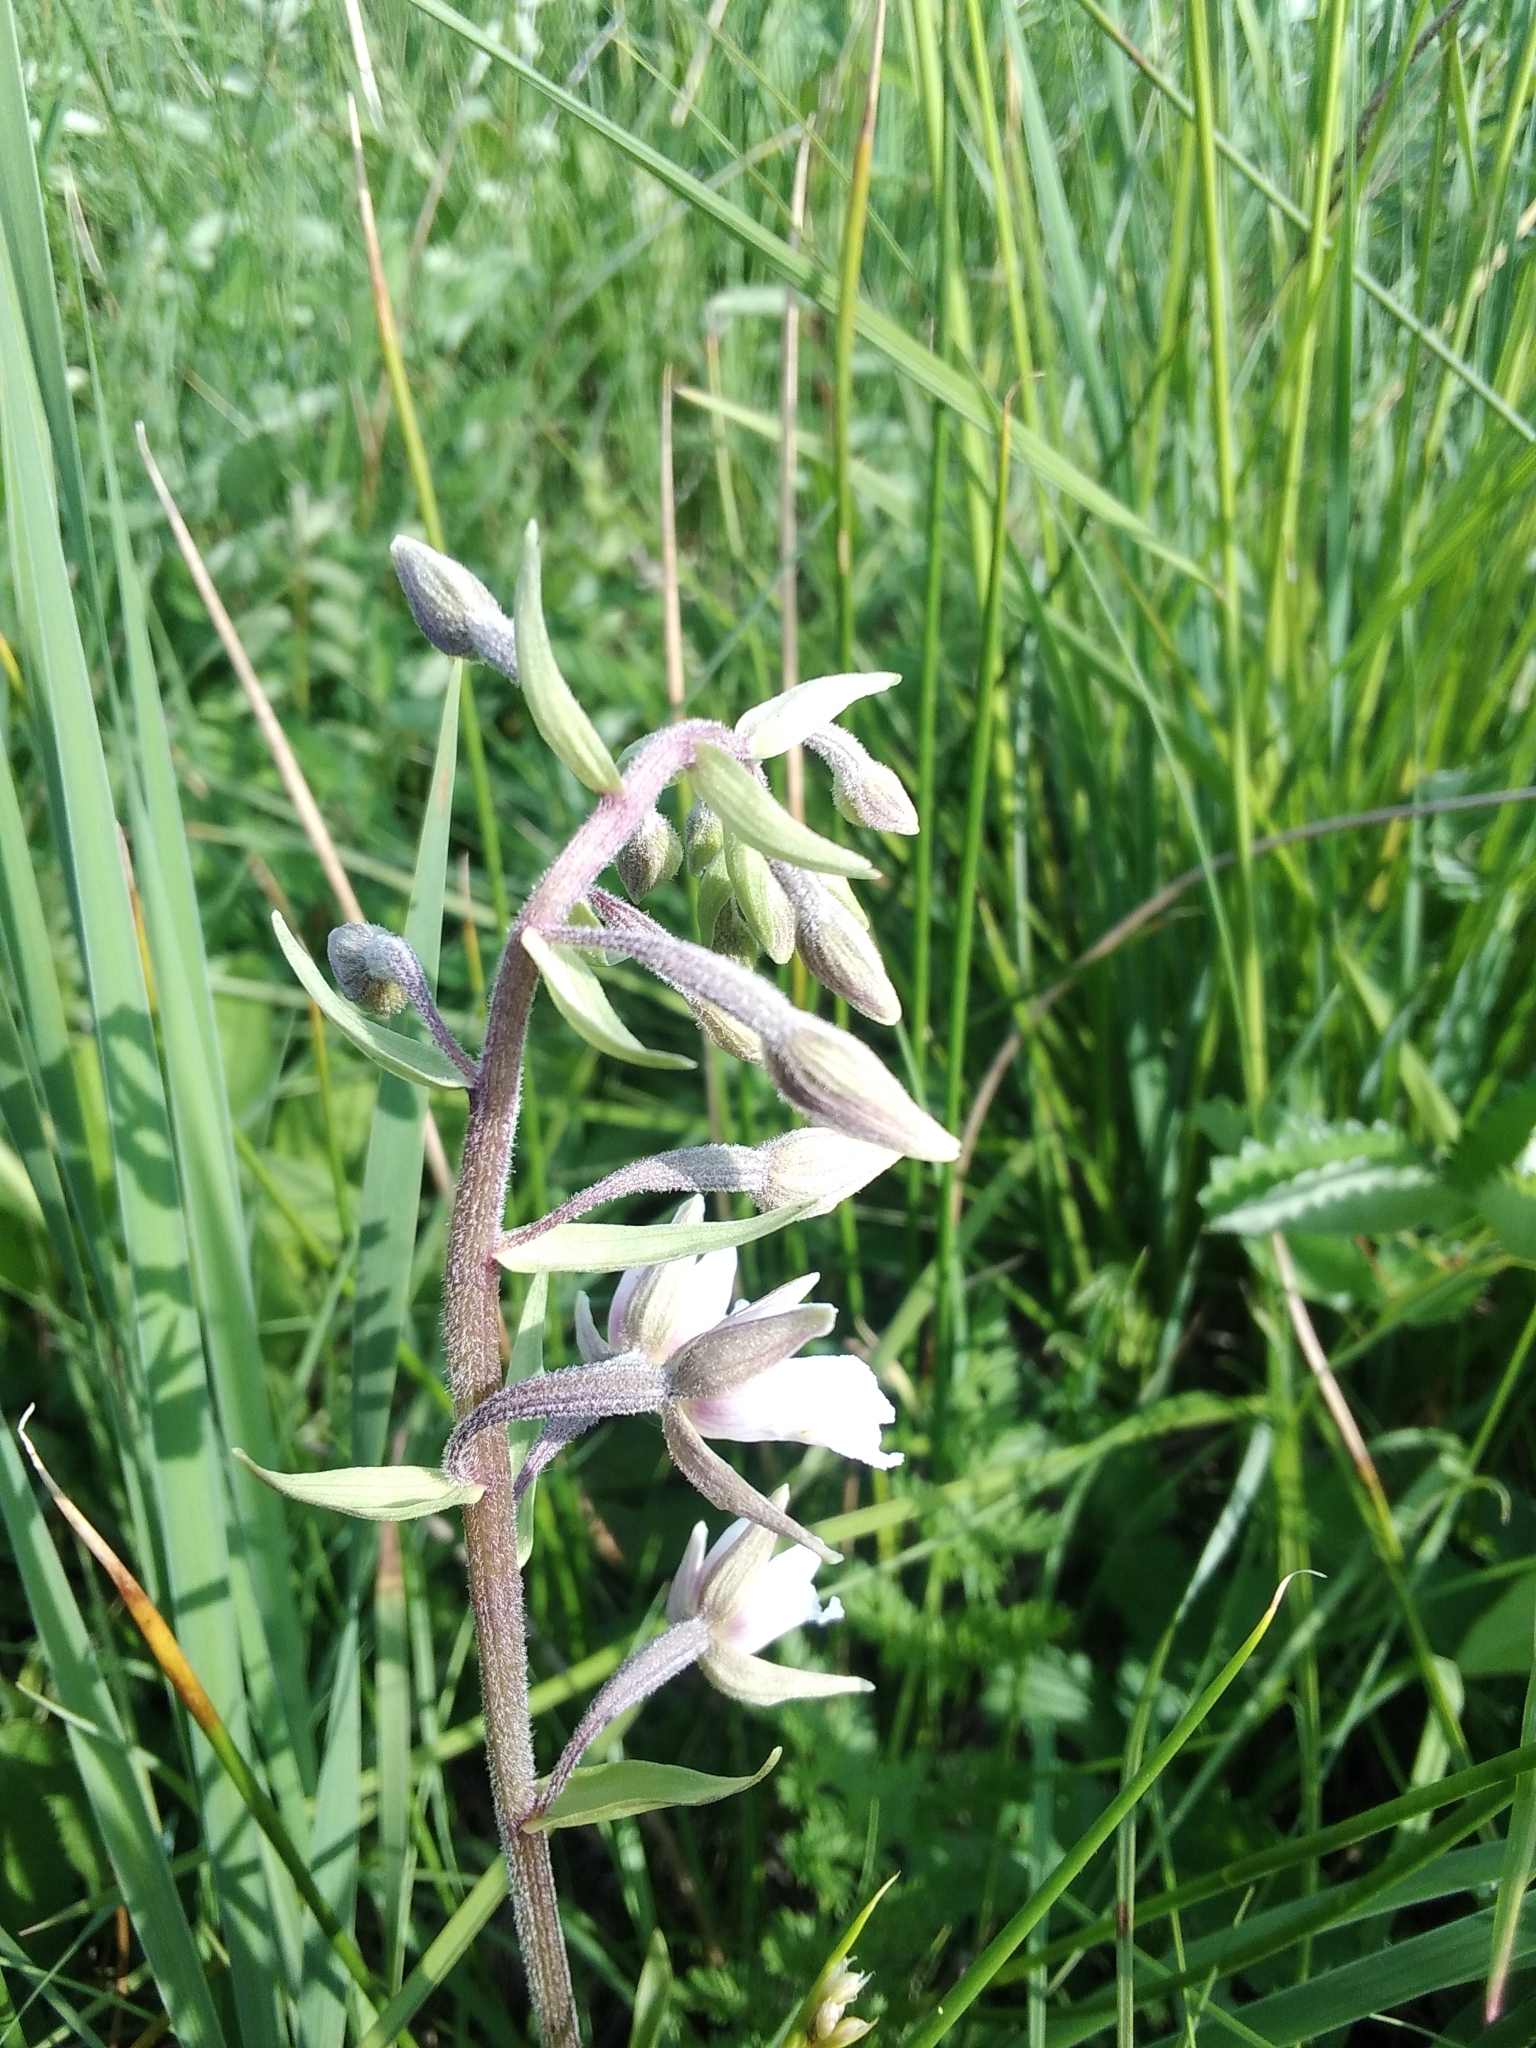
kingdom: Plantae
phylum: Tracheophyta
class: Liliopsida
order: Asparagales
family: Orchidaceae
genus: Epipactis
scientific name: Epipactis palustris
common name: Marsh helleborine
